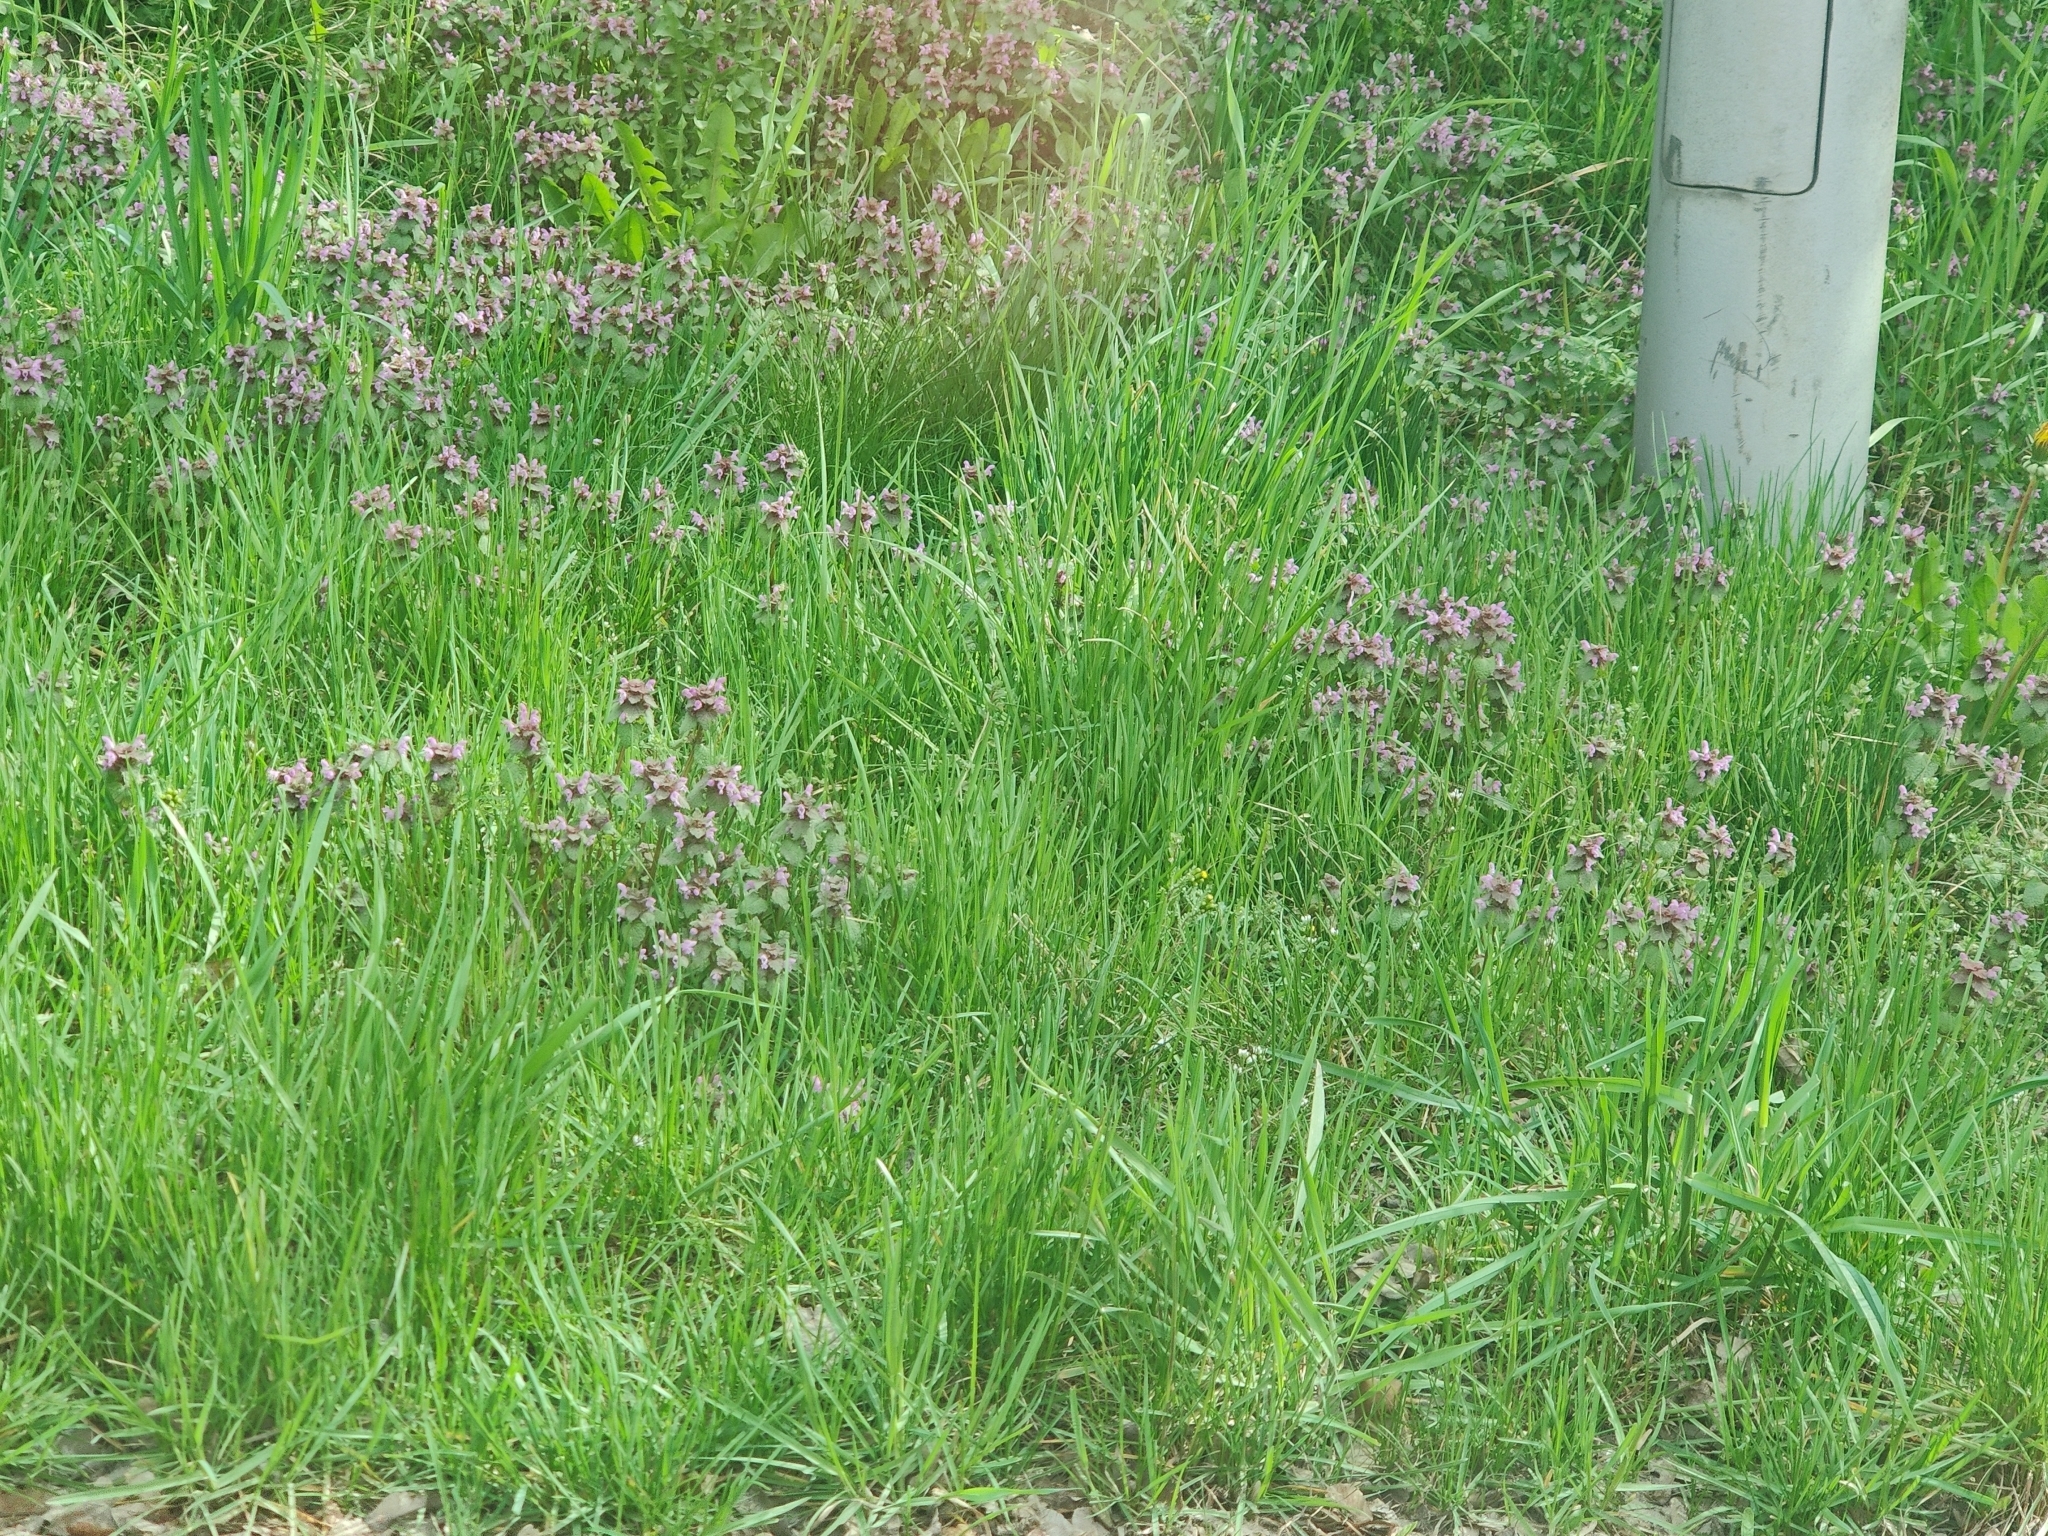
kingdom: Plantae
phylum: Tracheophyta
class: Magnoliopsida
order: Lamiales
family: Lamiaceae
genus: Lamium
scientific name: Lamium purpureum
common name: Red dead-nettle
